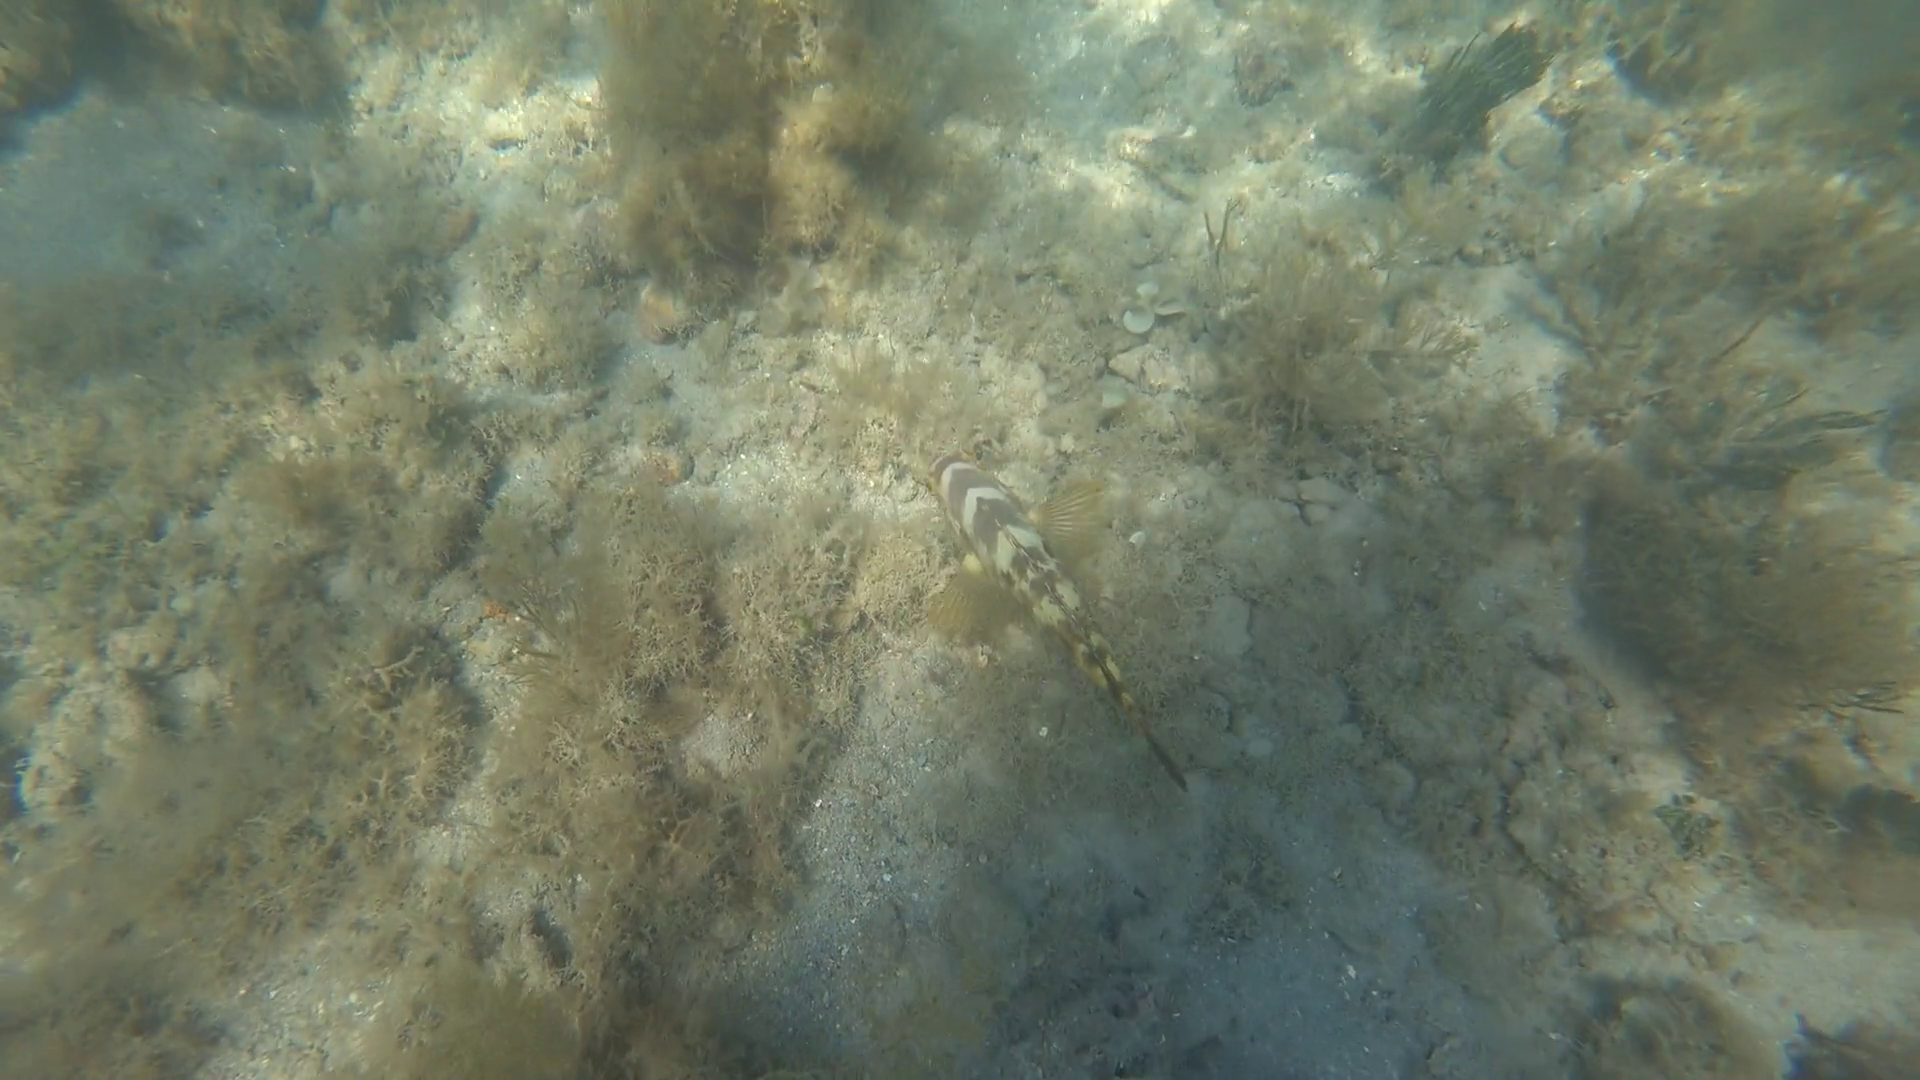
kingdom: Animalia
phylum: Chordata
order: Perciformes
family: Labridae
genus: Choerodon
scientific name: Choerodon graphicus
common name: Graphic tuskfish
